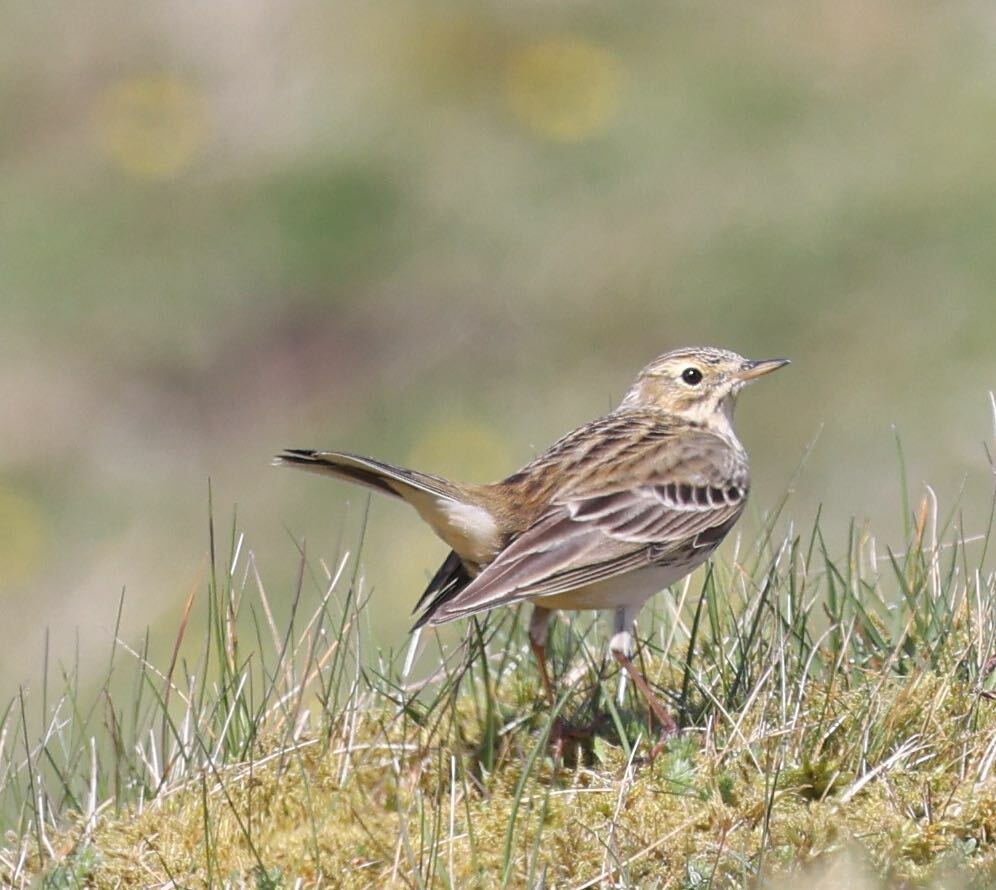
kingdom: Animalia
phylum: Chordata
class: Aves
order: Passeriformes
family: Motacillidae
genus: Anthus
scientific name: Anthus pratensis
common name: Meadow pipit
